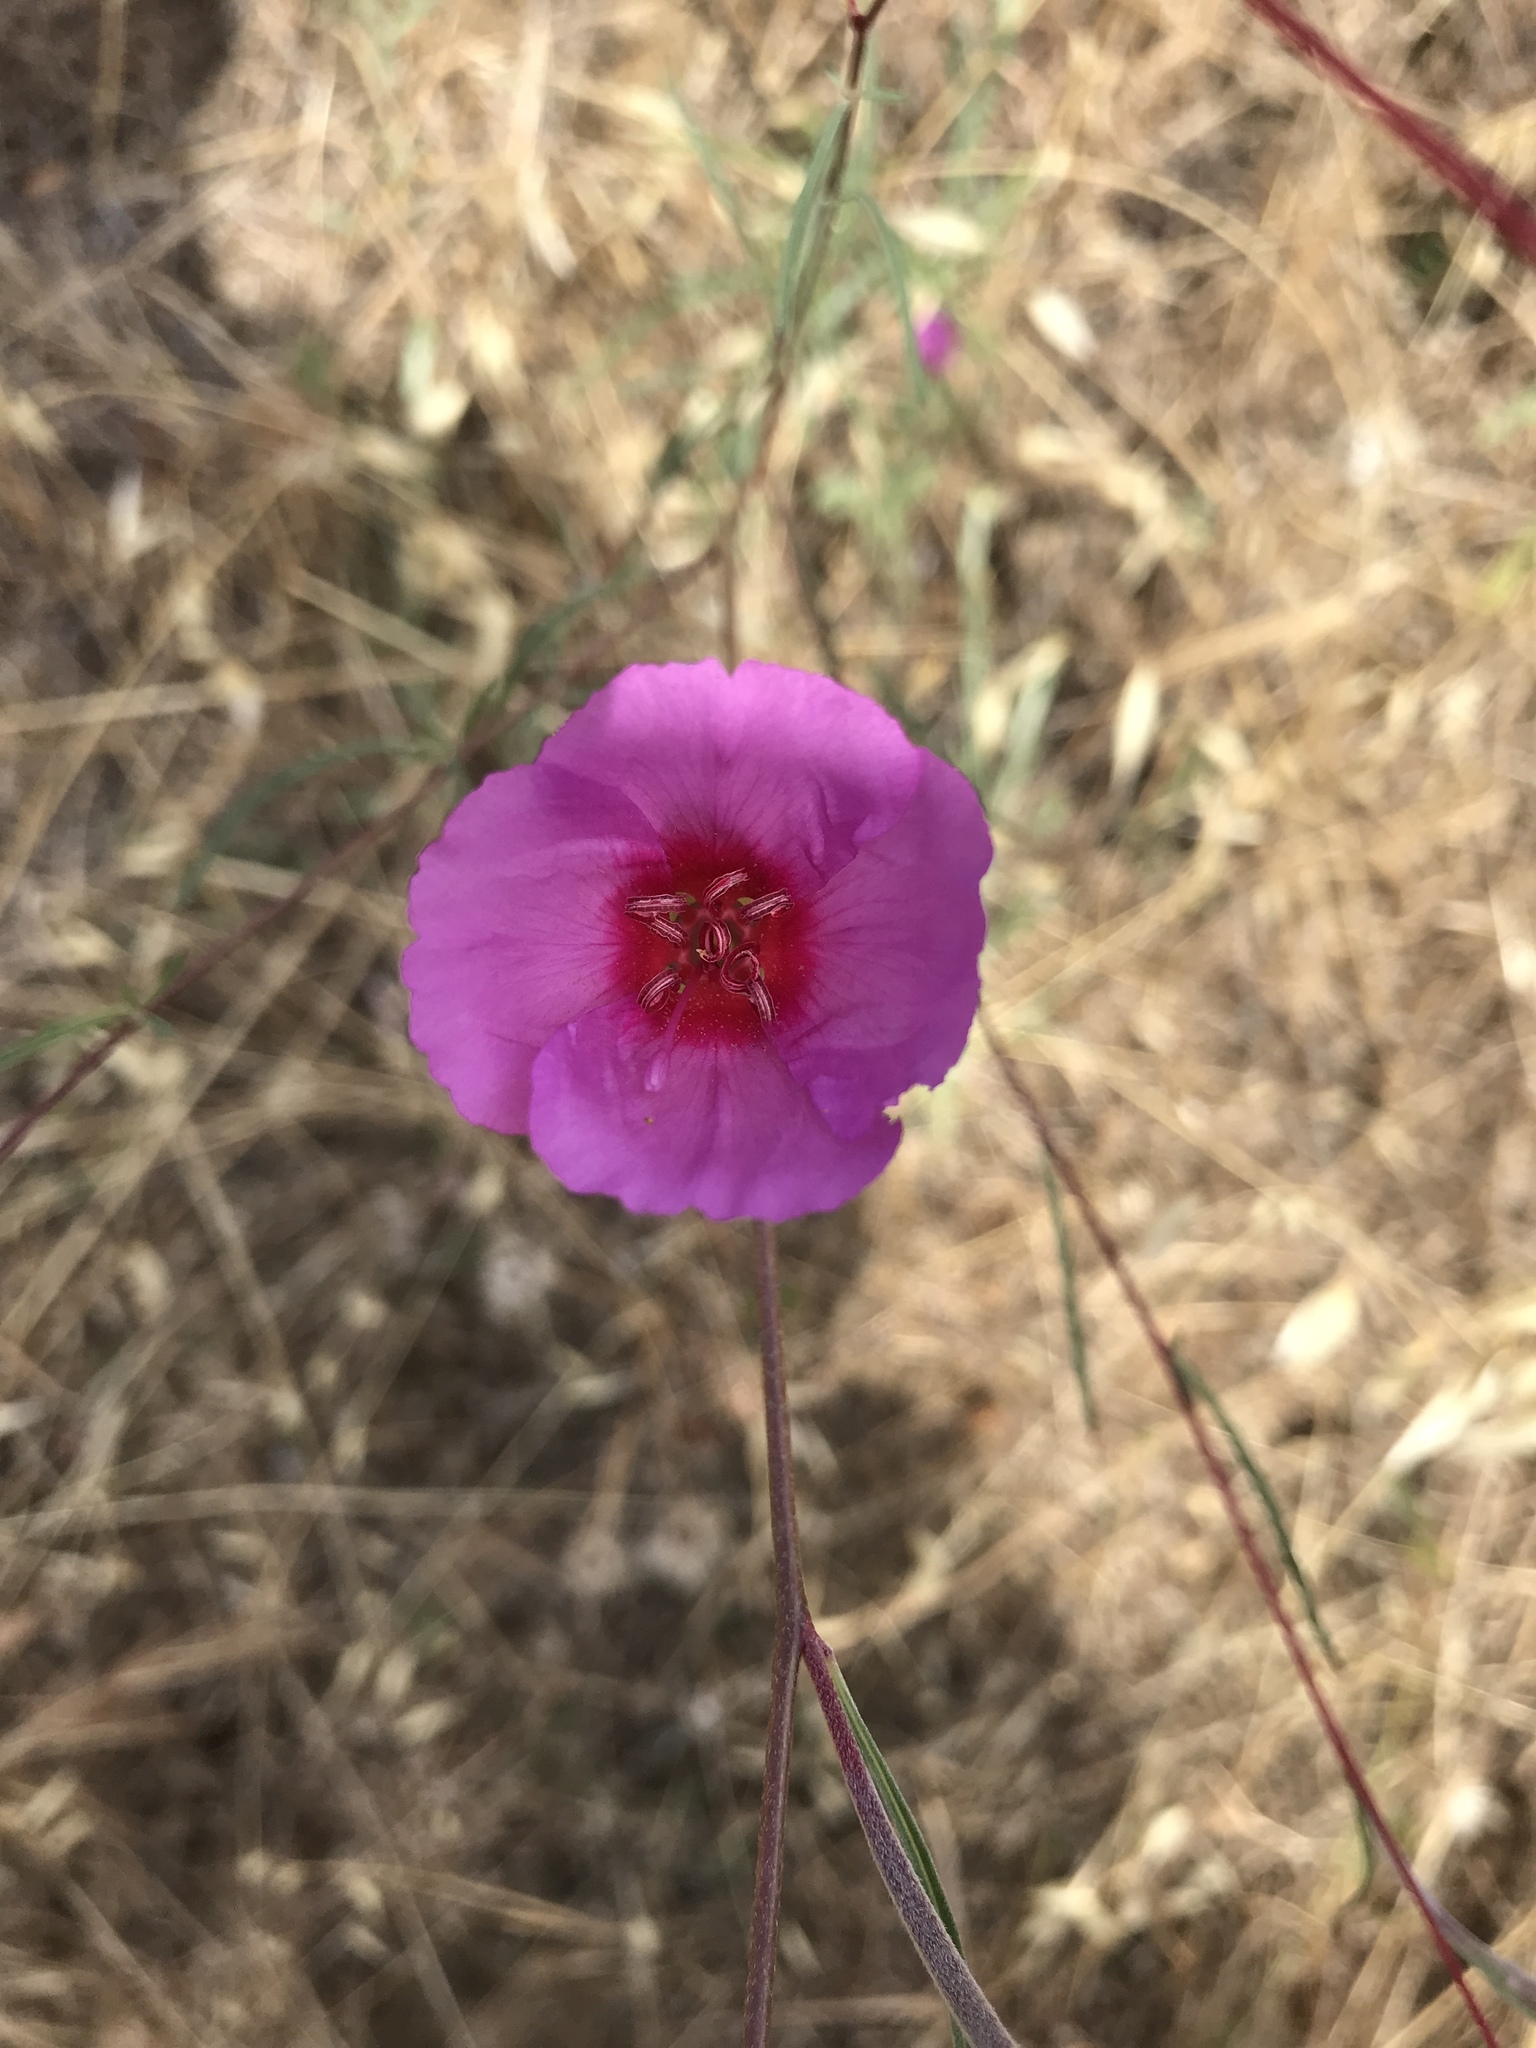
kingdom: Plantae
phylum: Tracheophyta
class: Magnoliopsida
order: Myrtales
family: Onagraceae
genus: Clarkia
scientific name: Clarkia rubicunda
